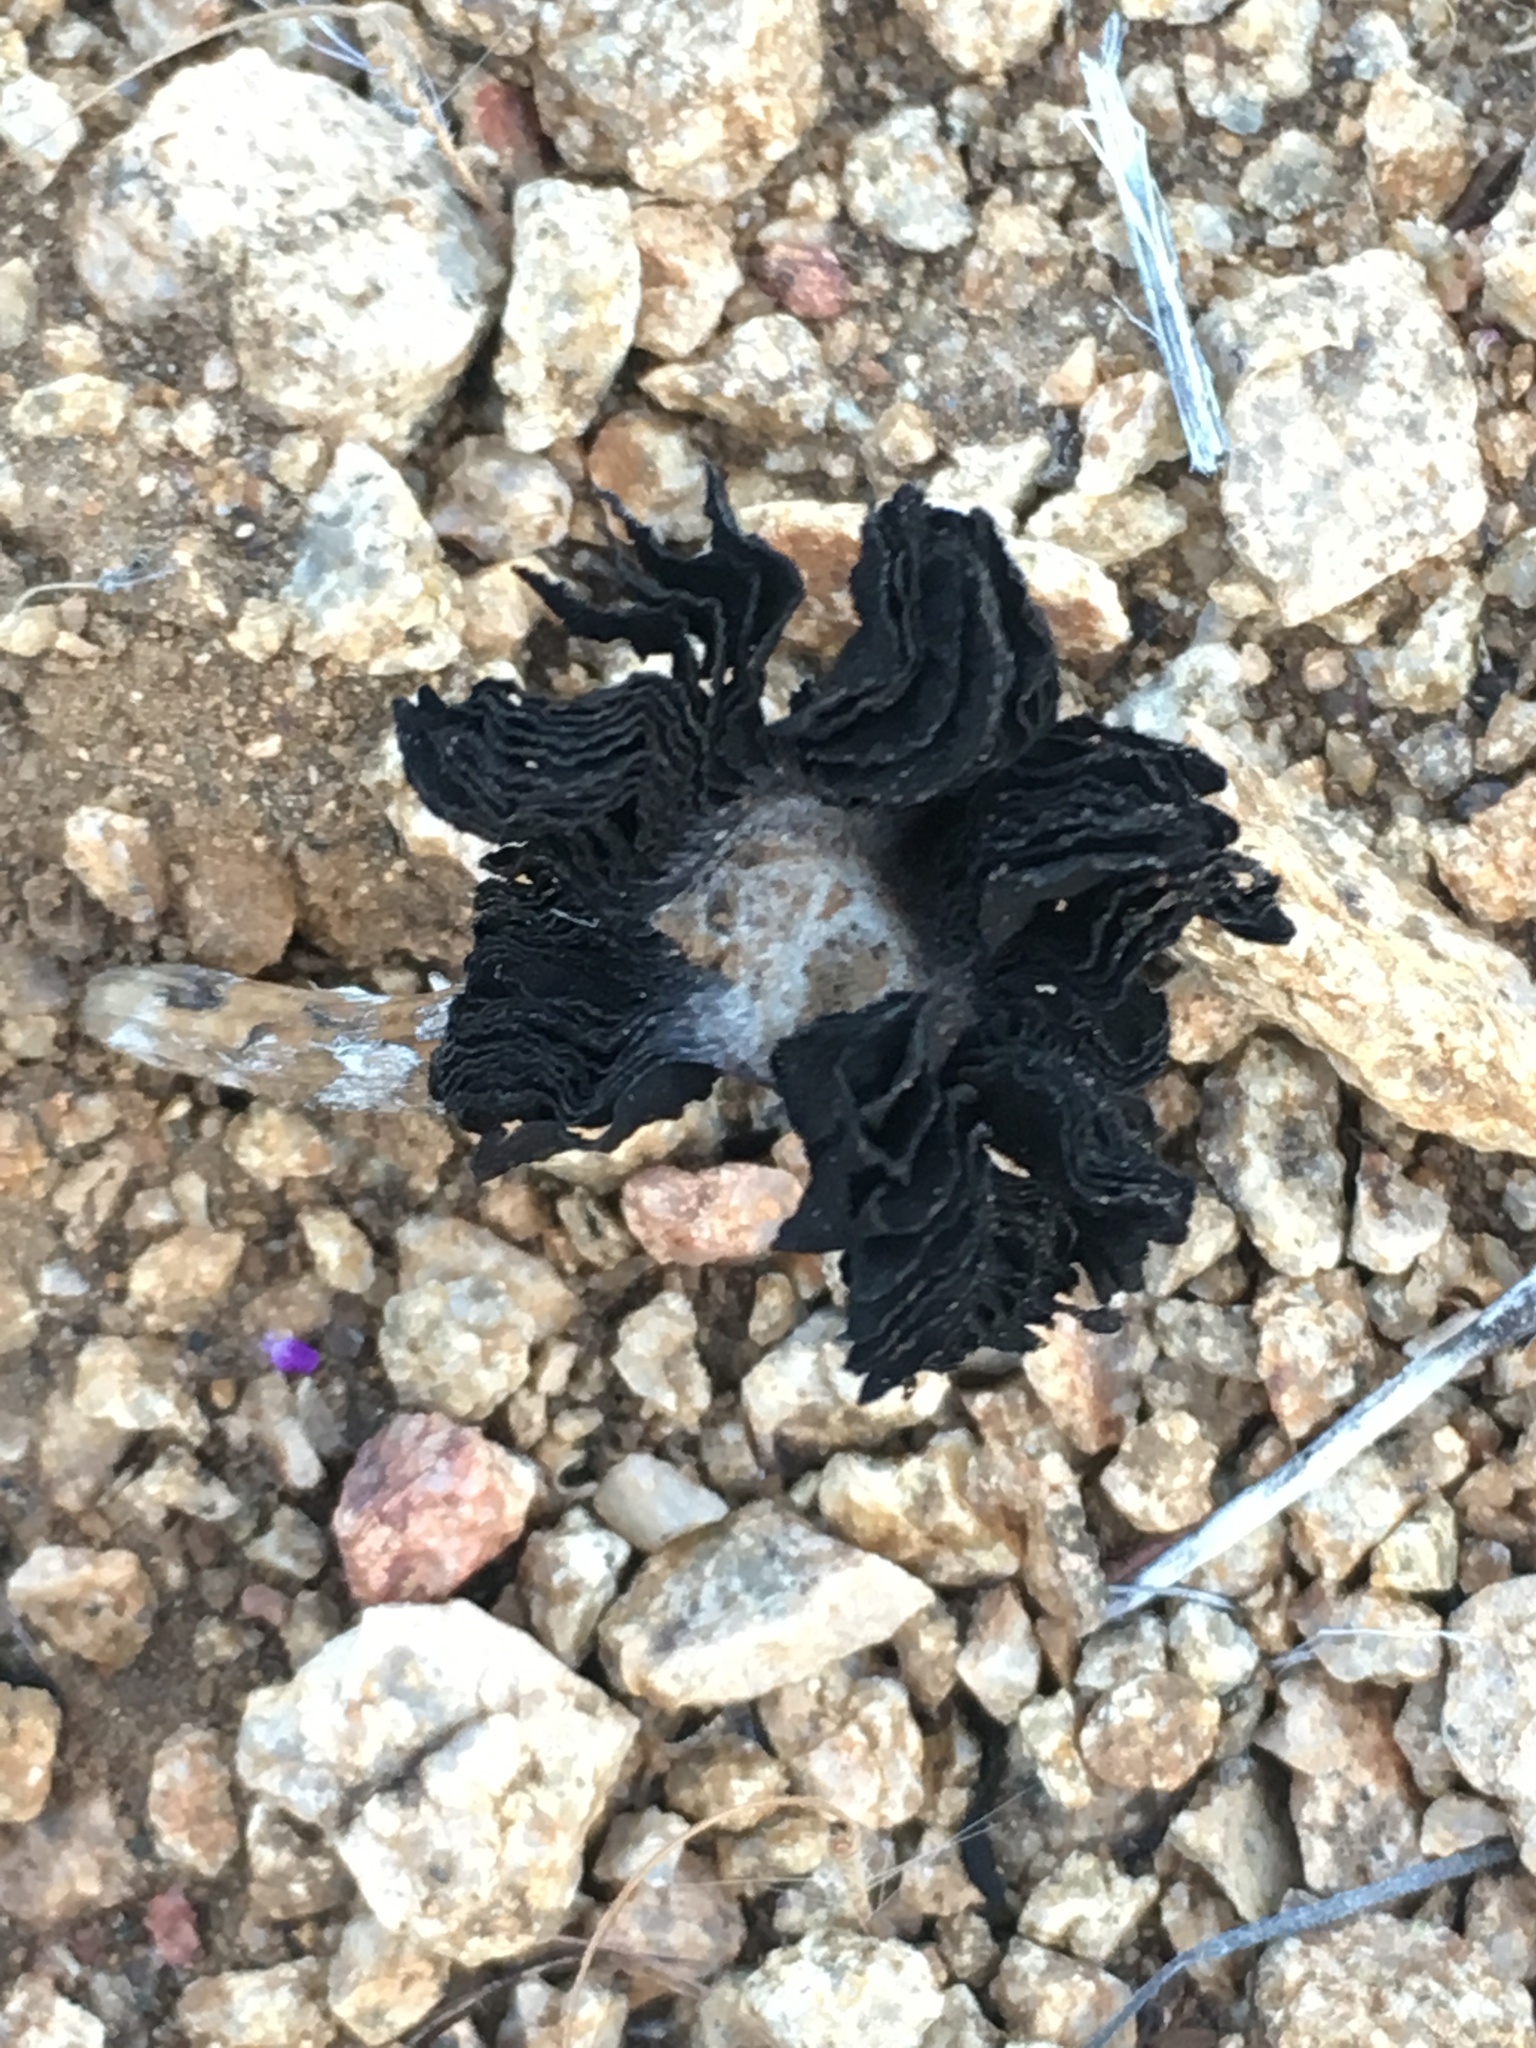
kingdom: Fungi
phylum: Basidiomycota
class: Agaricomycetes
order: Agaricales
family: Agaricaceae
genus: Montagnea
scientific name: Montagnea arenaria
